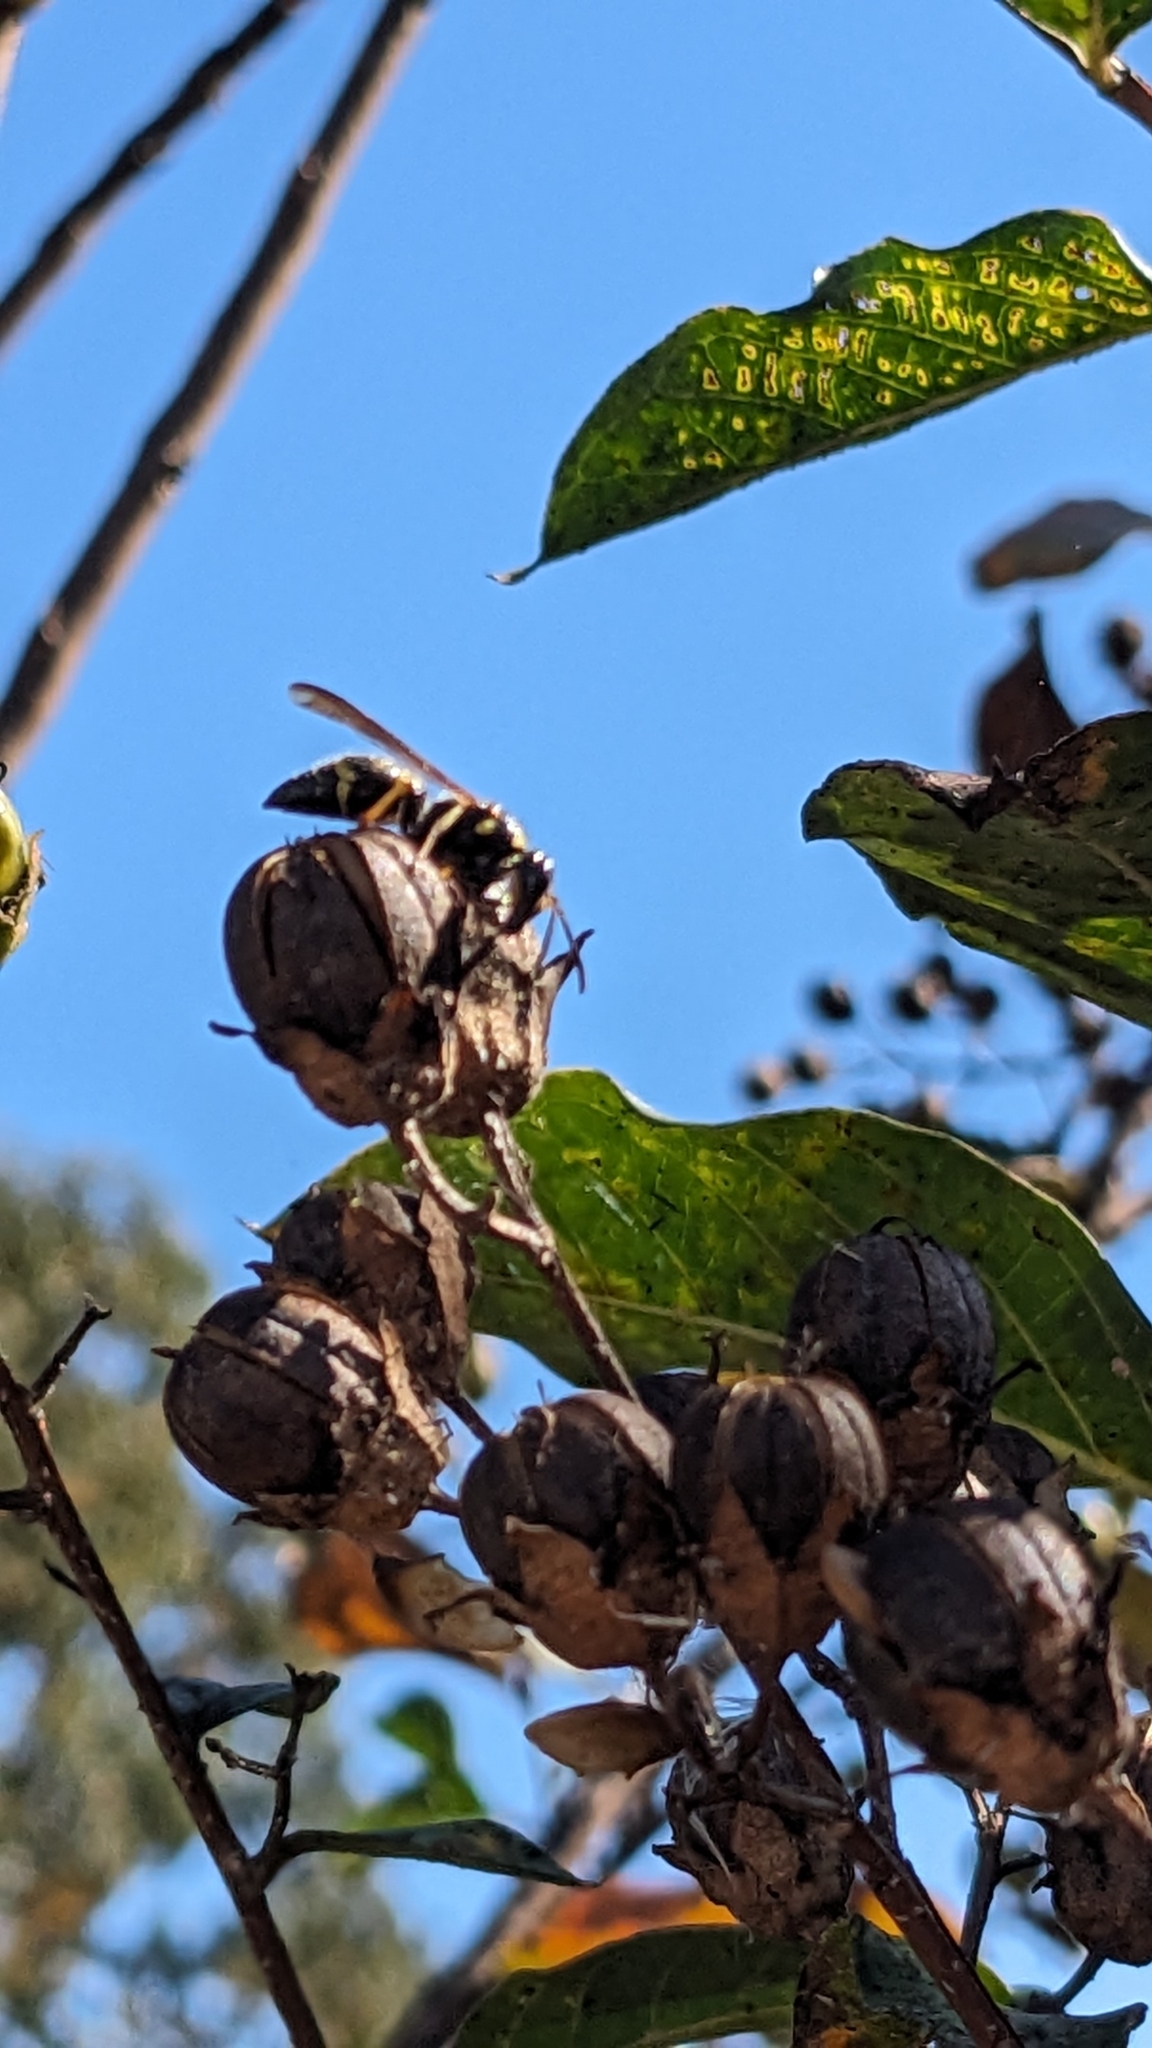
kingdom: Animalia
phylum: Arthropoda
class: Insecta
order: Hymenoptera
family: Vespidae
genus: Ancistrocerus
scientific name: Ancistrocerus
